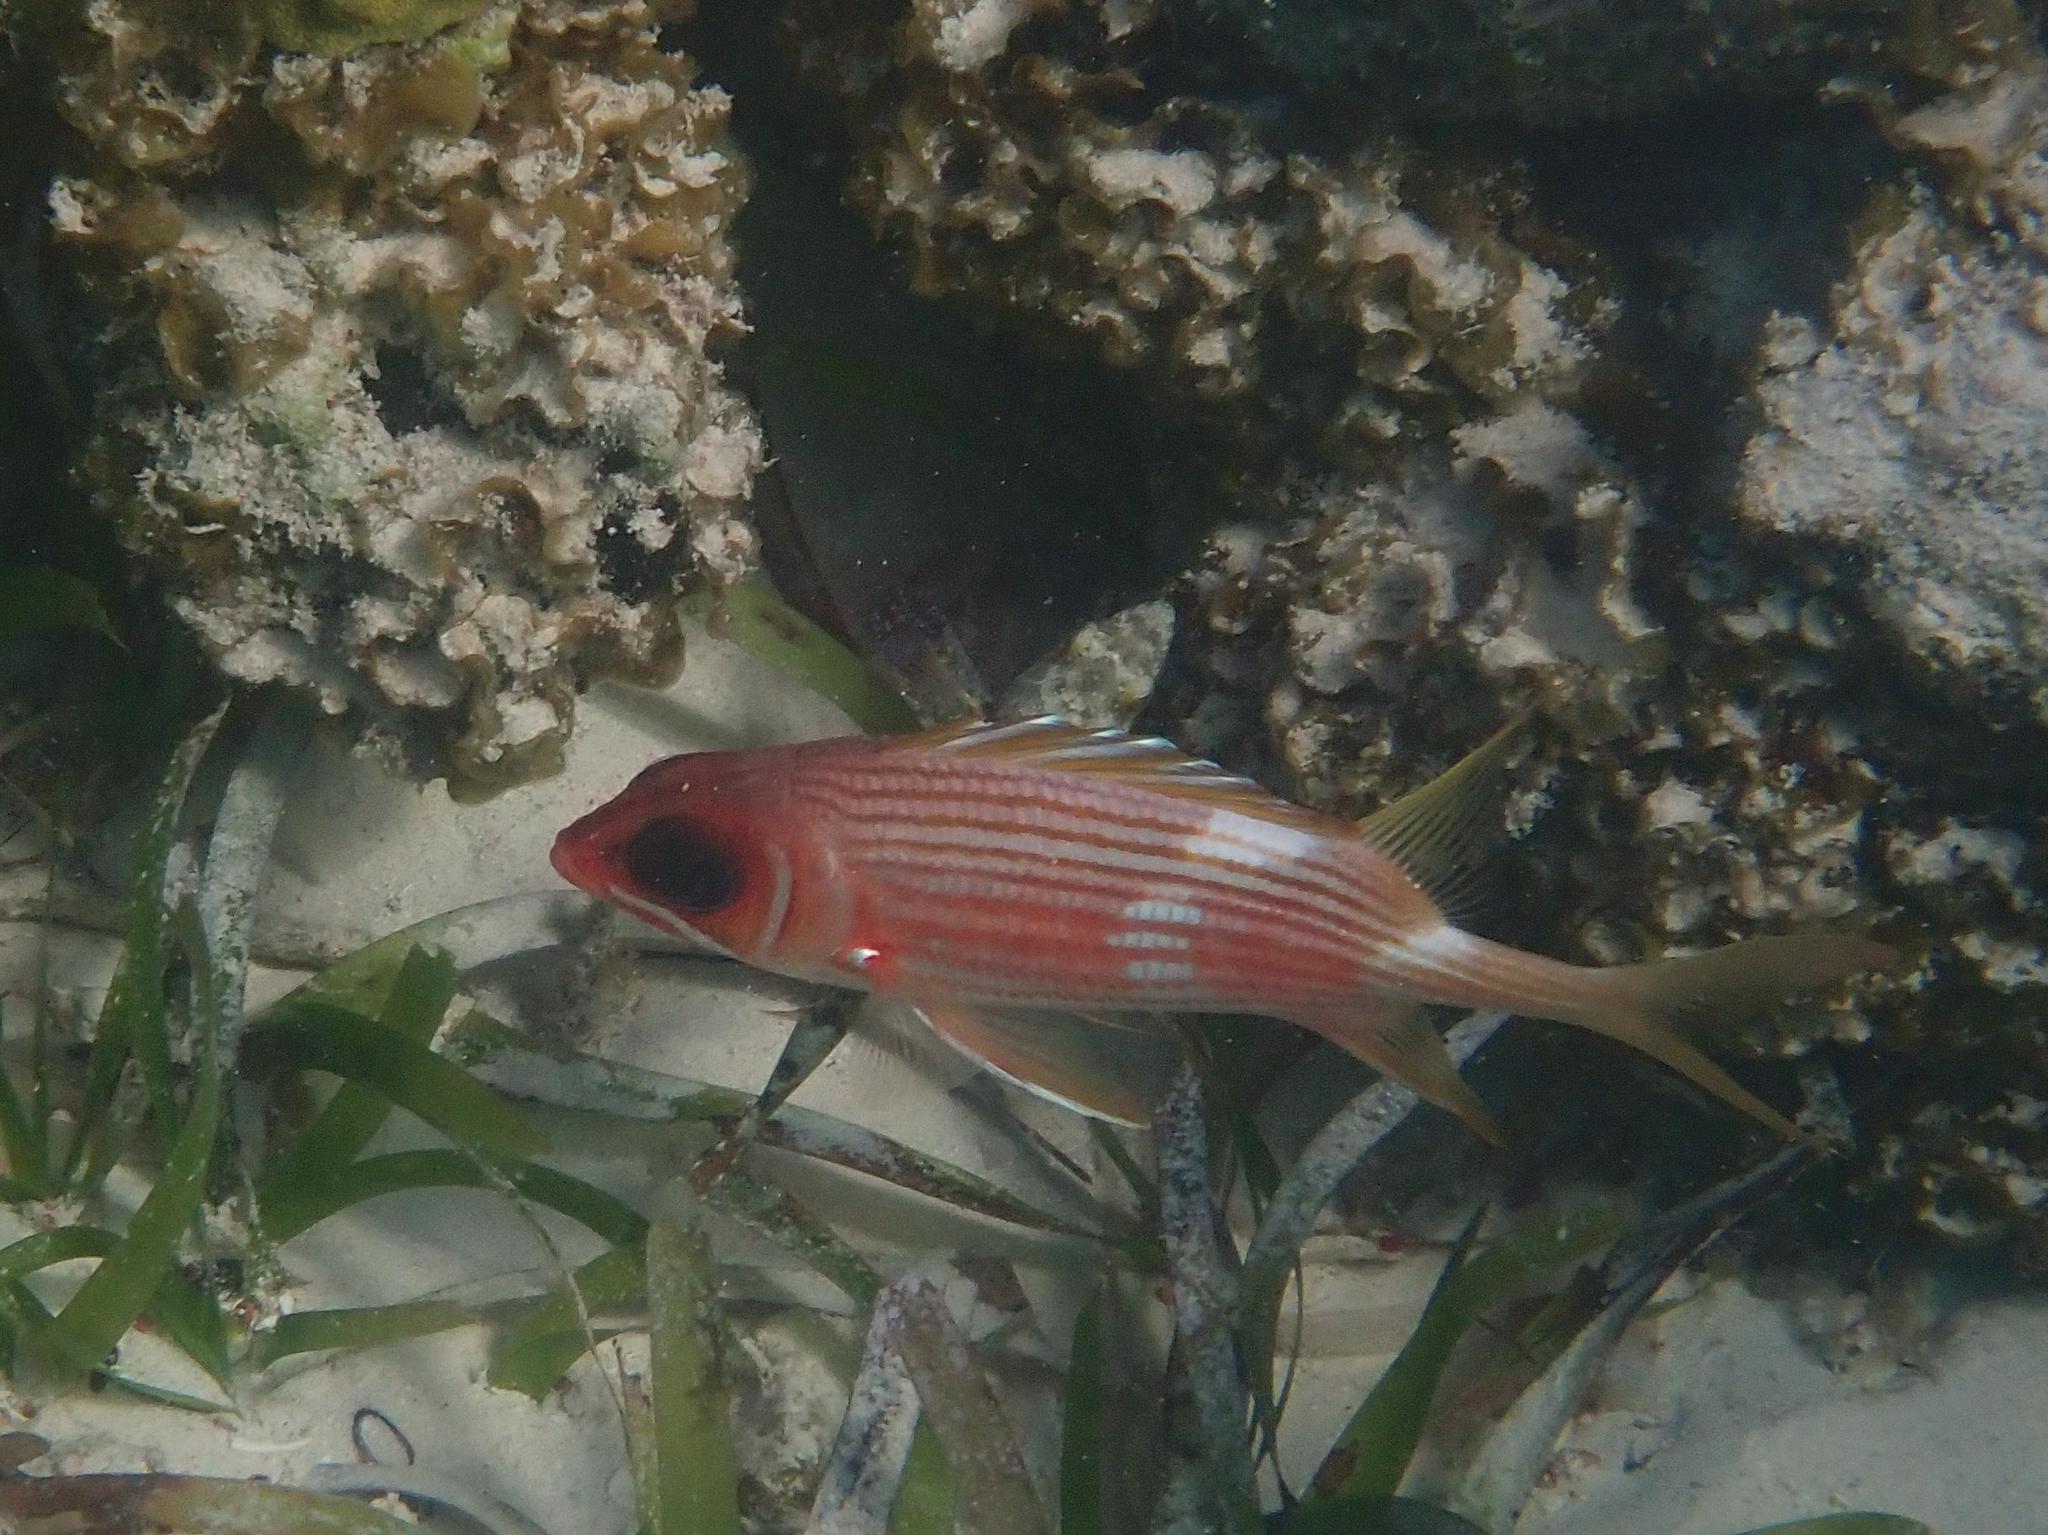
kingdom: Animalia
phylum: Chordata
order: Beryciformes
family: Holocentridae
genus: Holocentrus
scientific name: Holocentrus rufus
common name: Longspine squirrelfish
